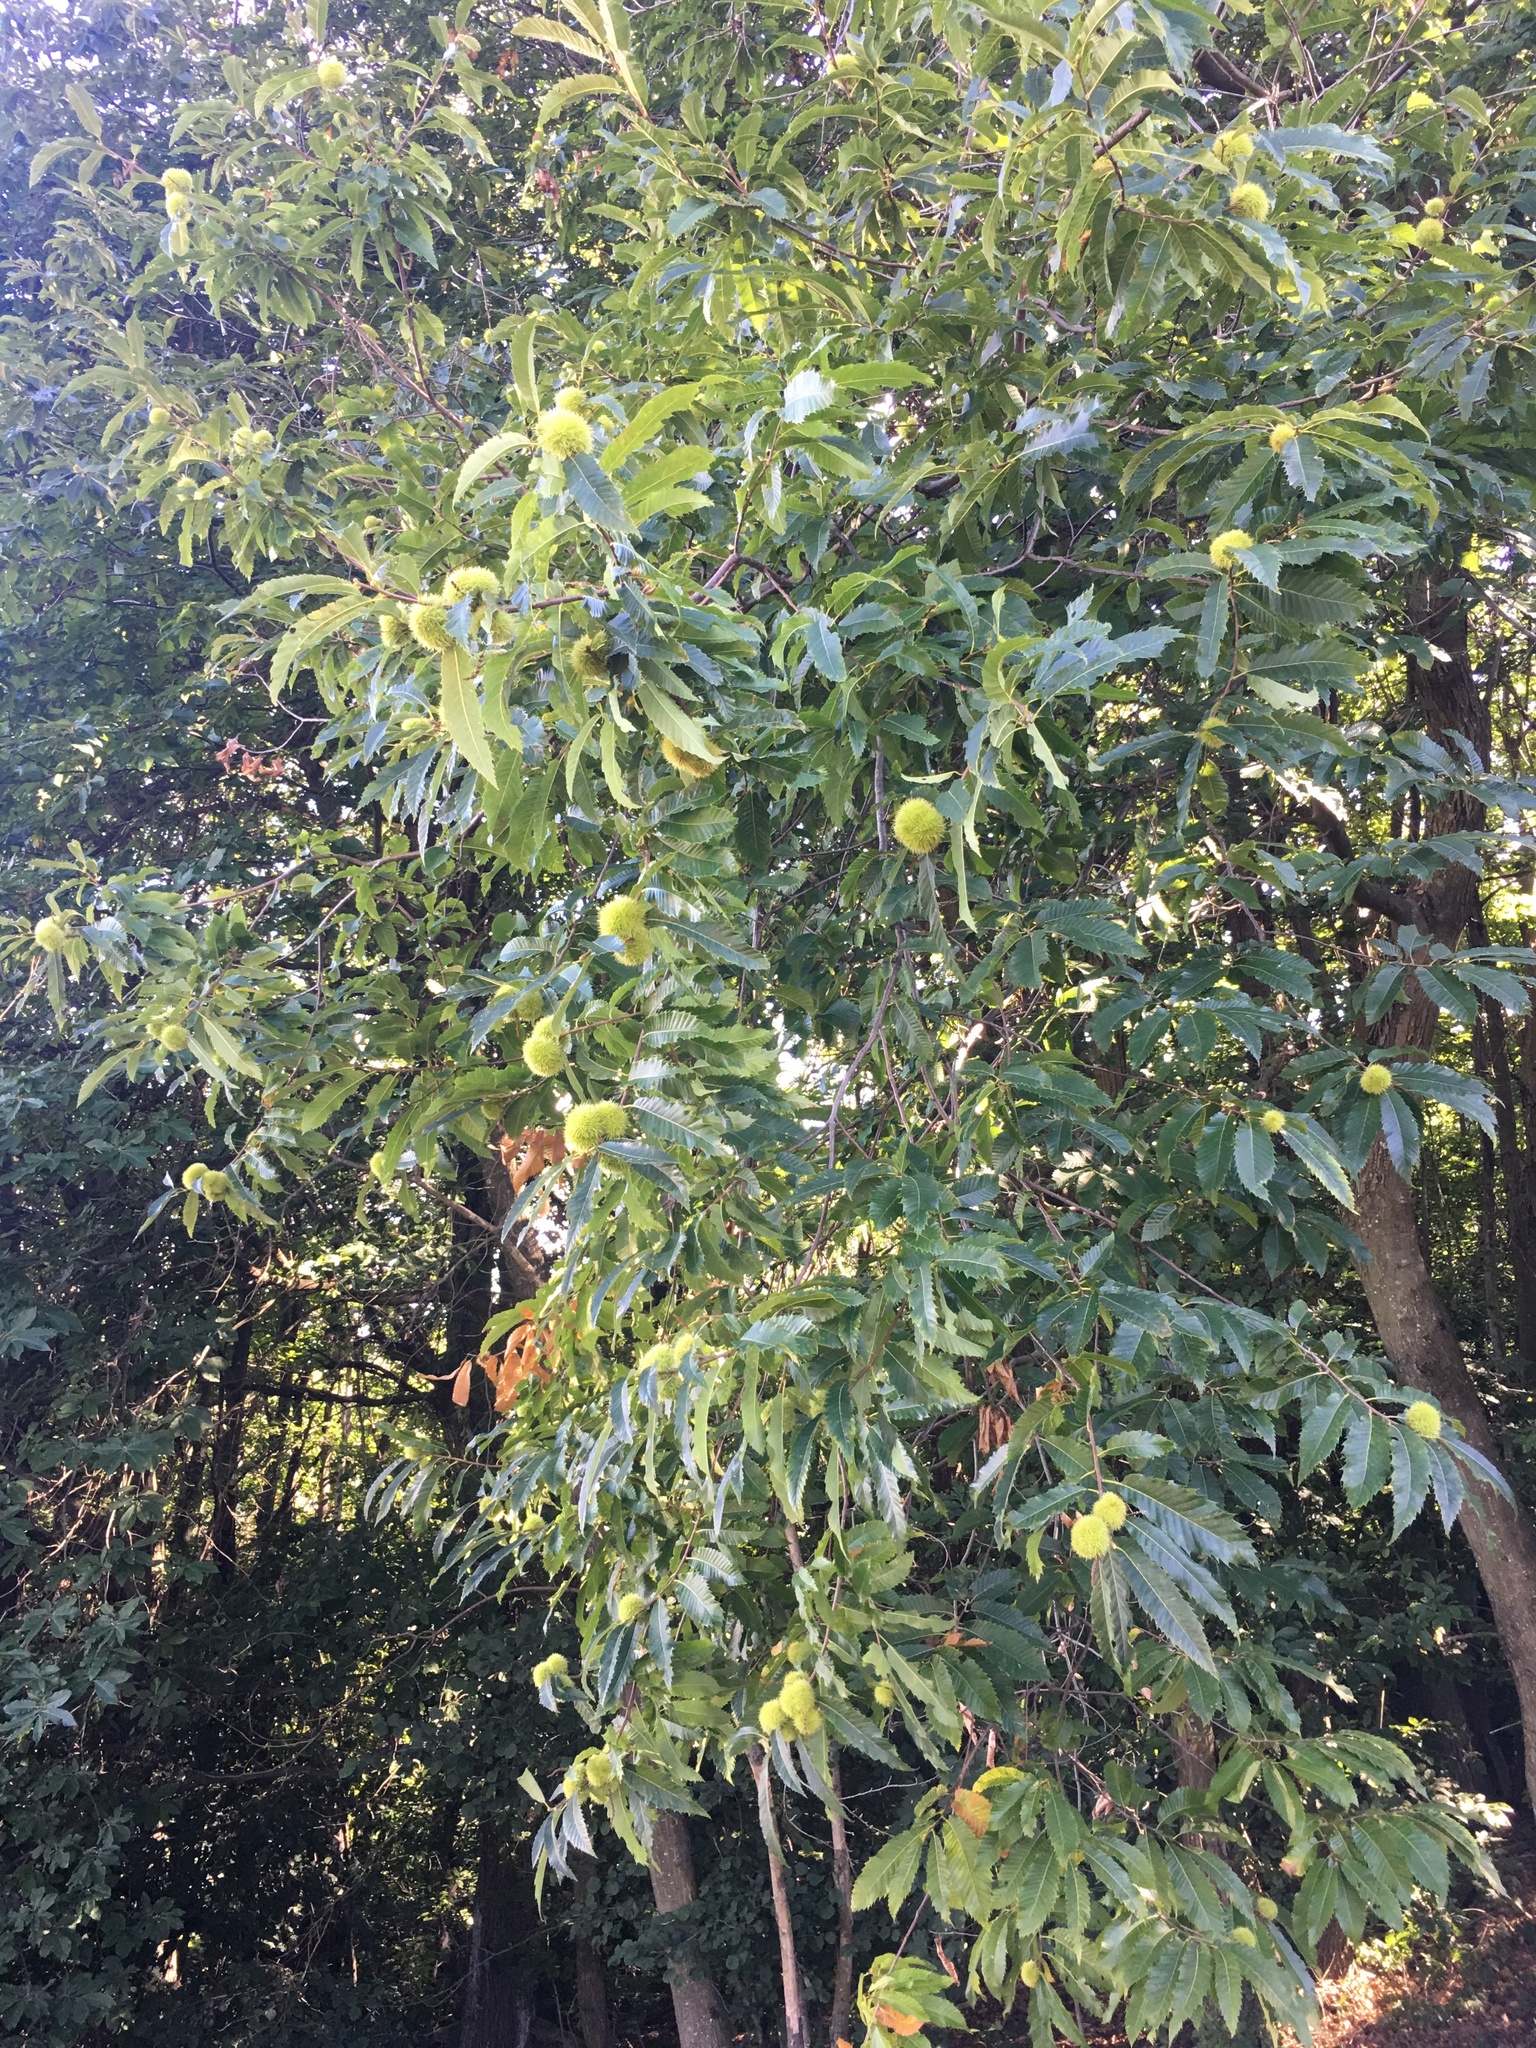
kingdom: Plantae
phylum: Tracheophyta
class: Magnoliopsida
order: Fagales
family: Fagaceae
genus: Castanea
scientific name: Castanea sativa
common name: Sweet chestnut
